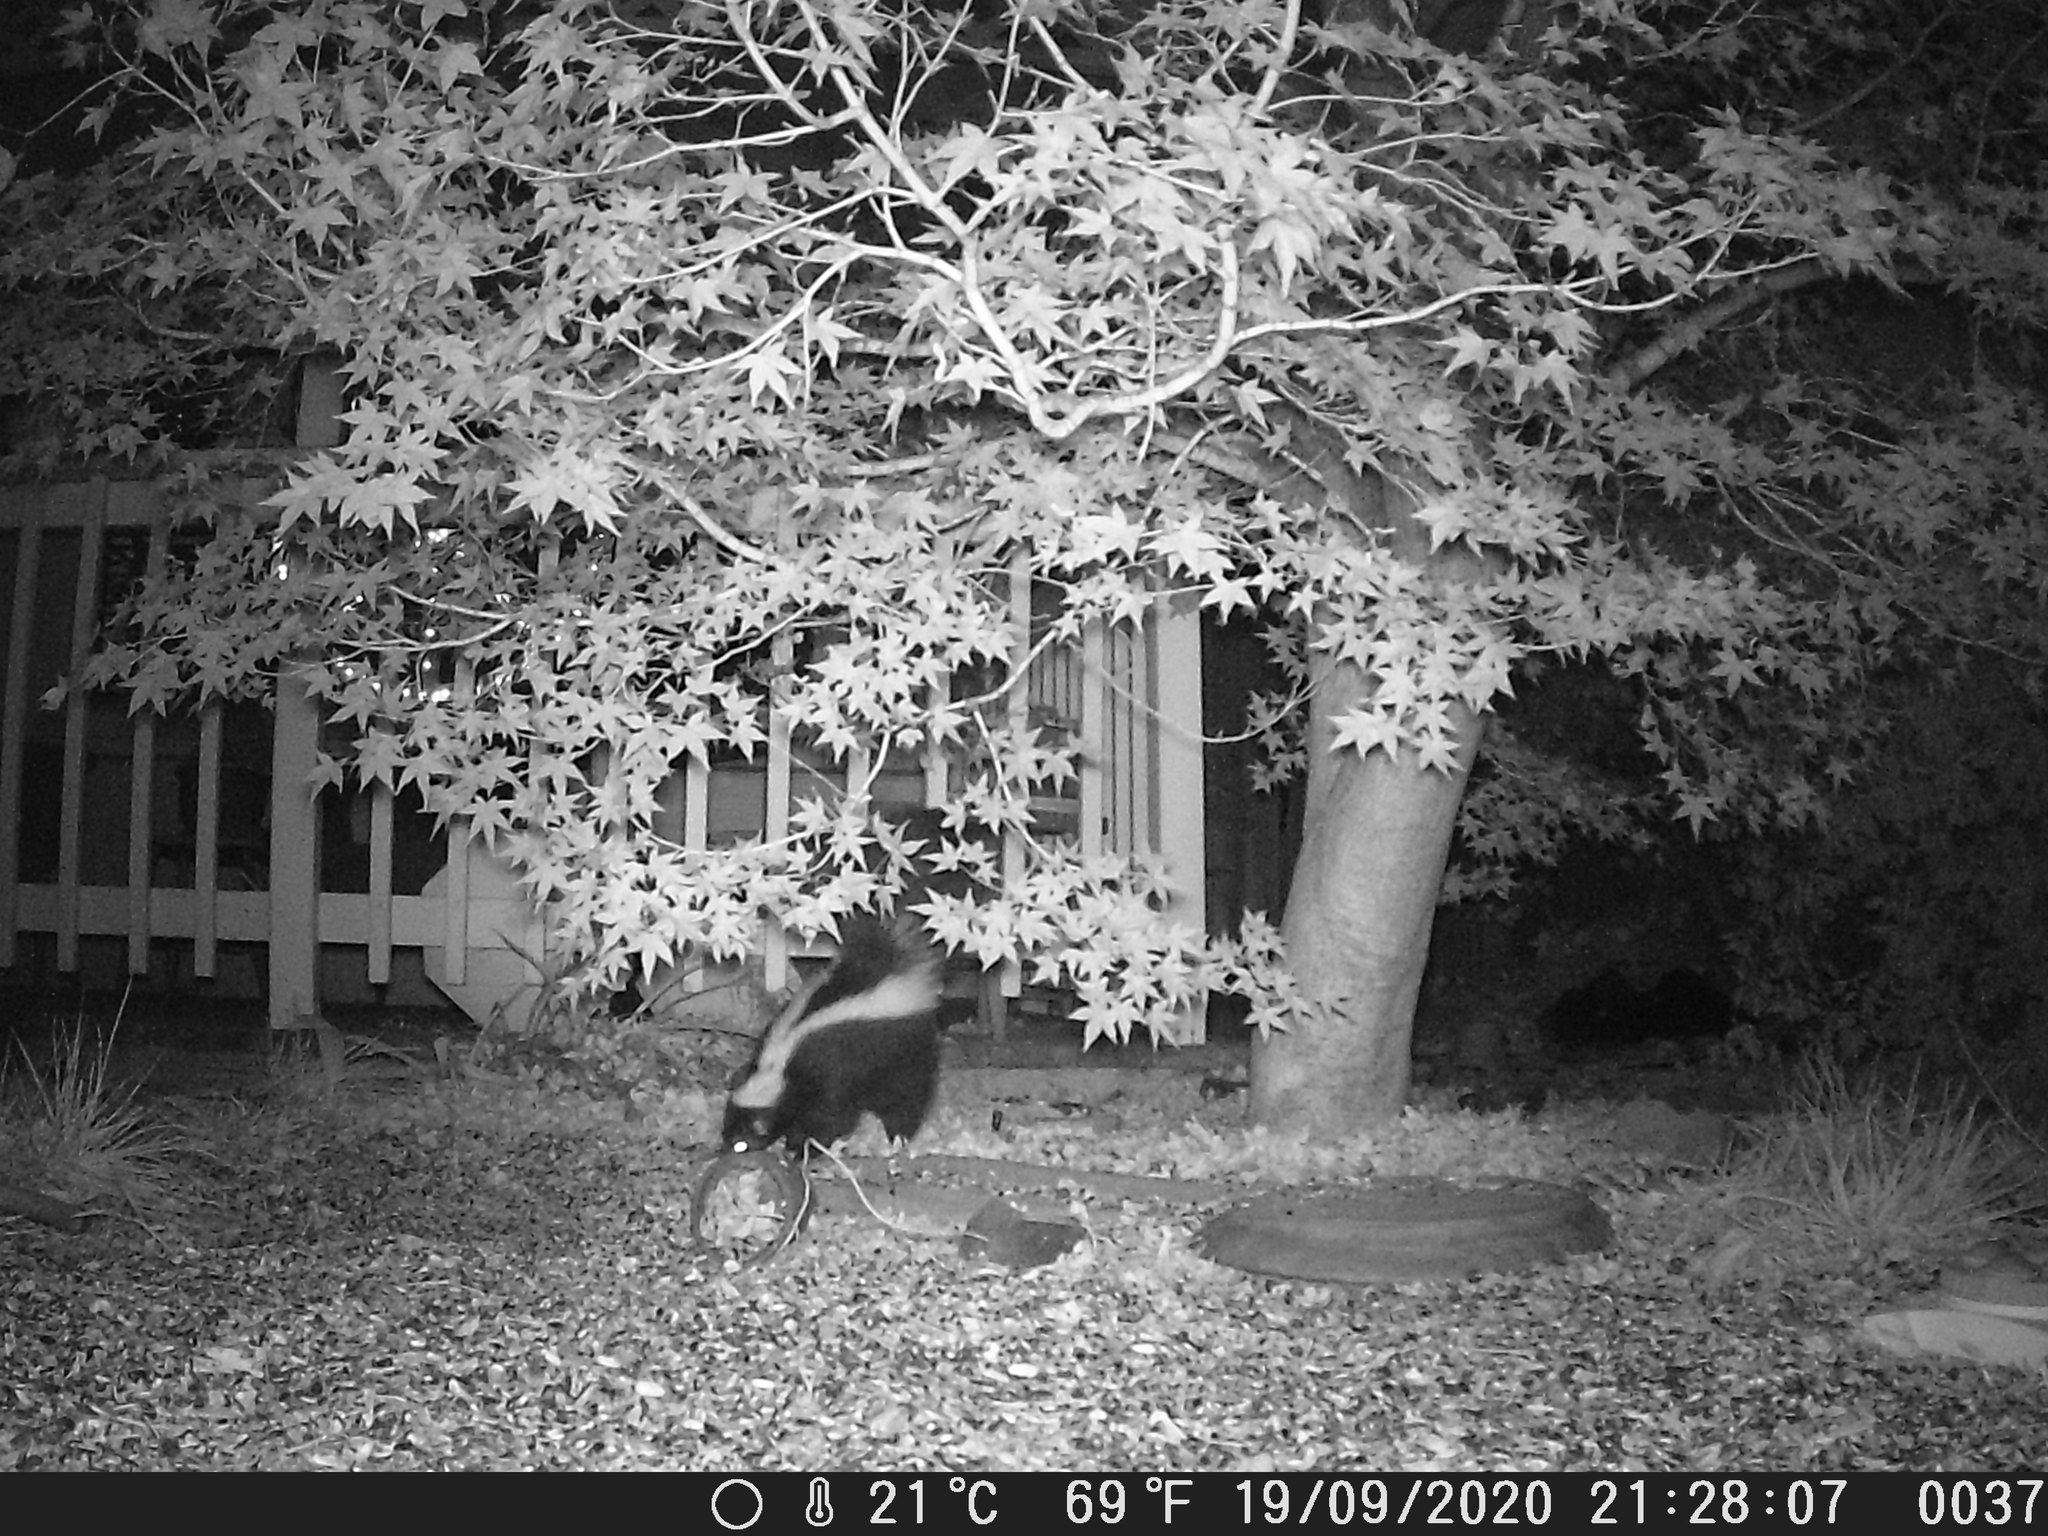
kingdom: Animalia
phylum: Chordata
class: Mammalia
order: Carnivora
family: Mephitidae
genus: Mephitis
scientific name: Mephitis mephitis
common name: Striped skunk
